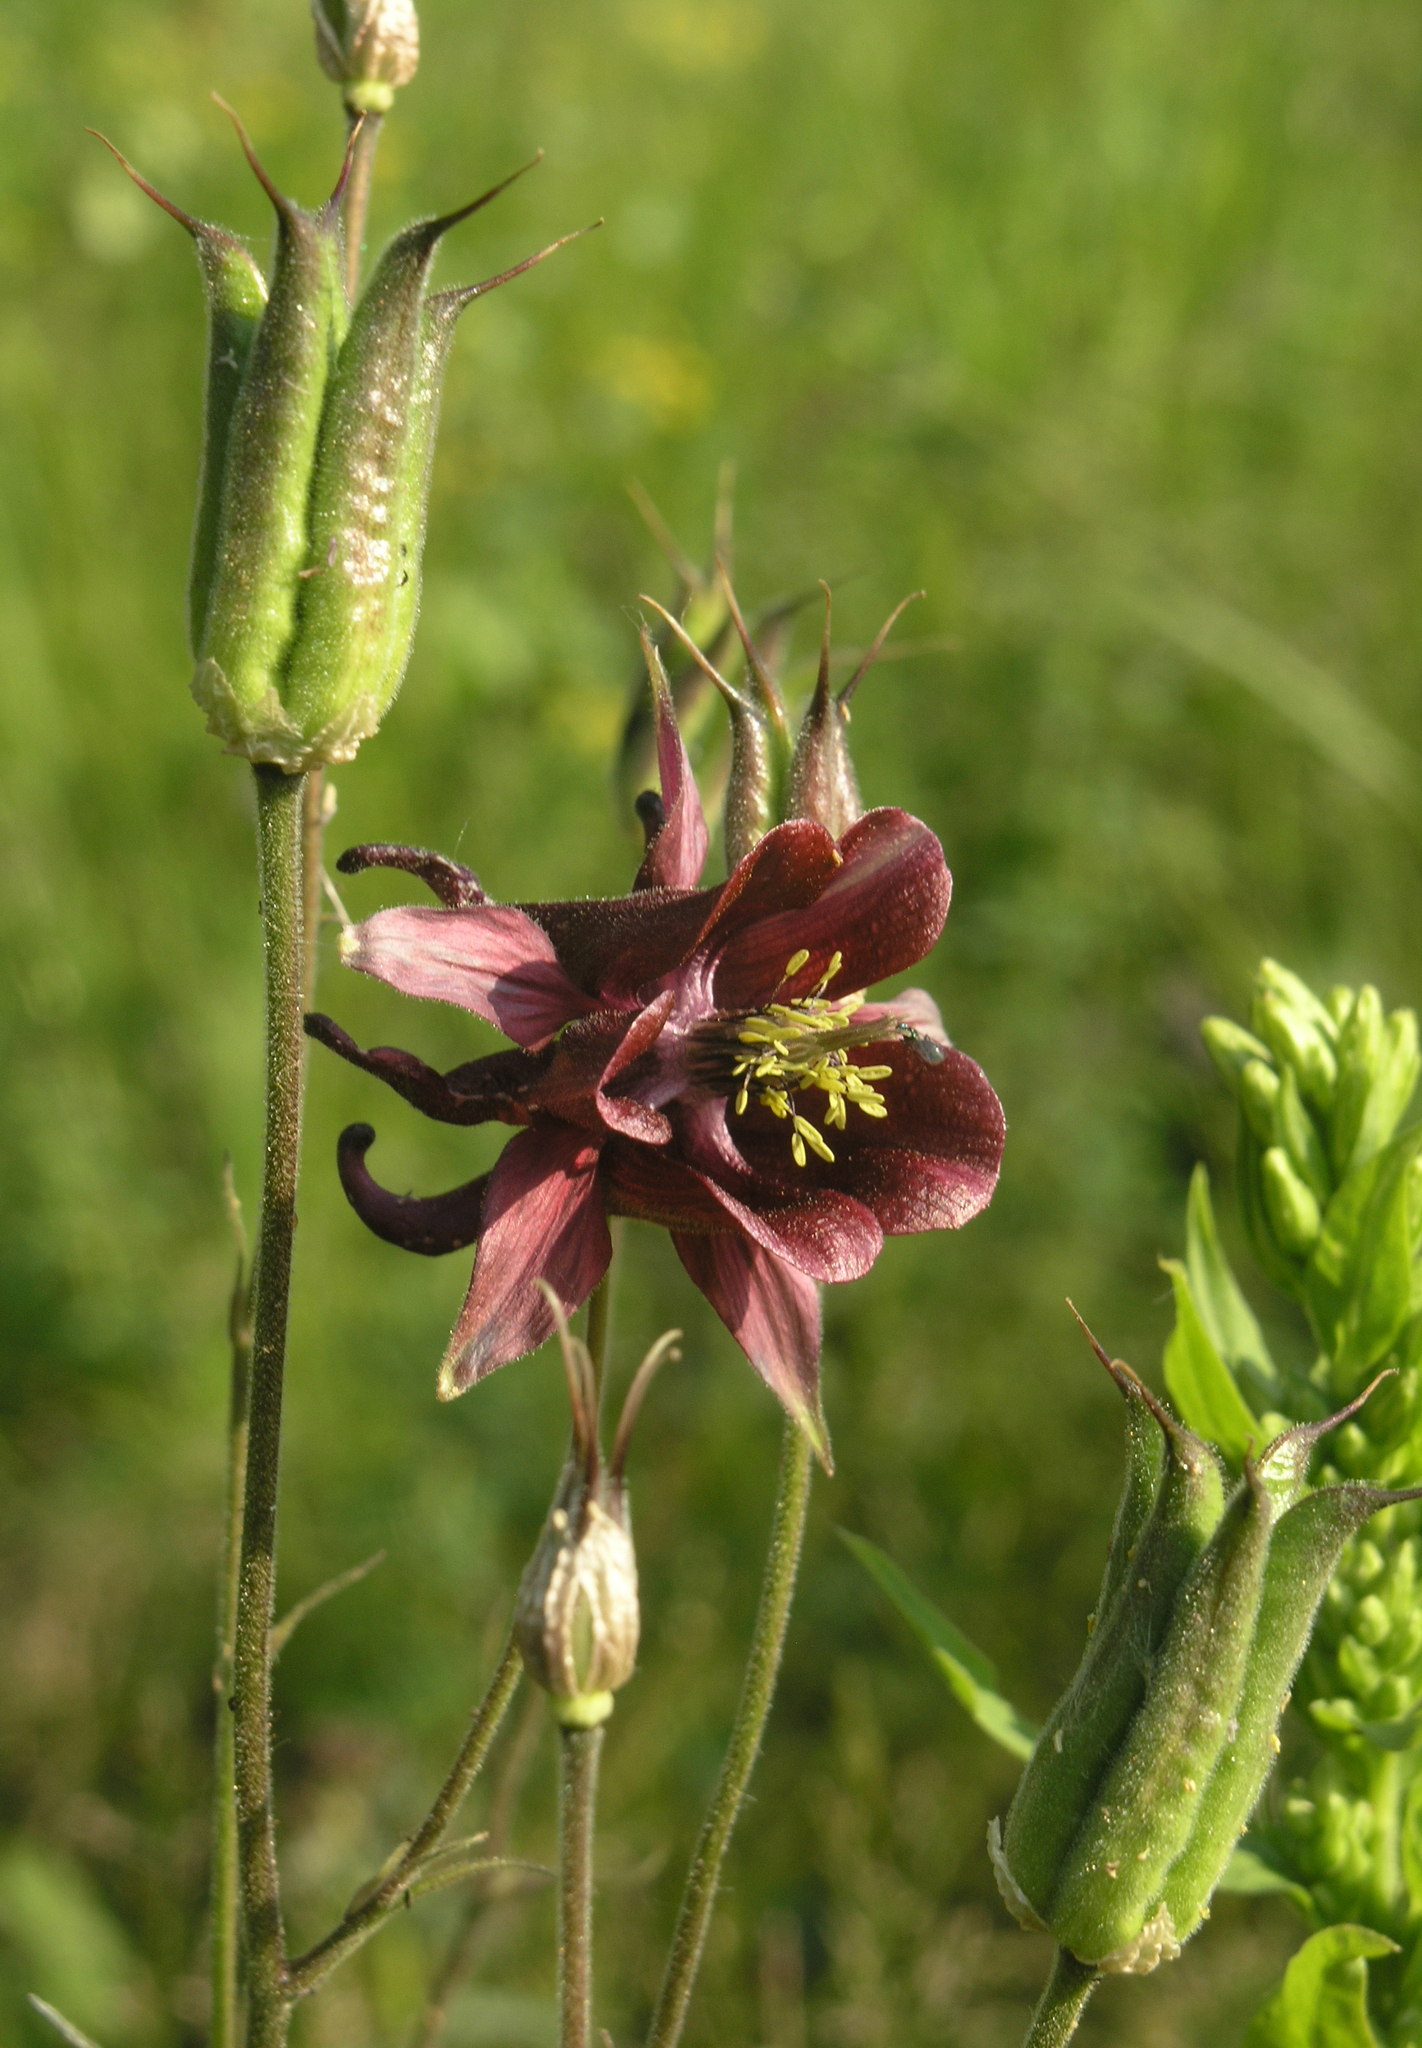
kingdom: Plantae
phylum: Tracheophyta
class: Magnoliopsida
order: Ranunculales
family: Ranunculaceae
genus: Aquilegia
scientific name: Aquilegia atrovinosa
